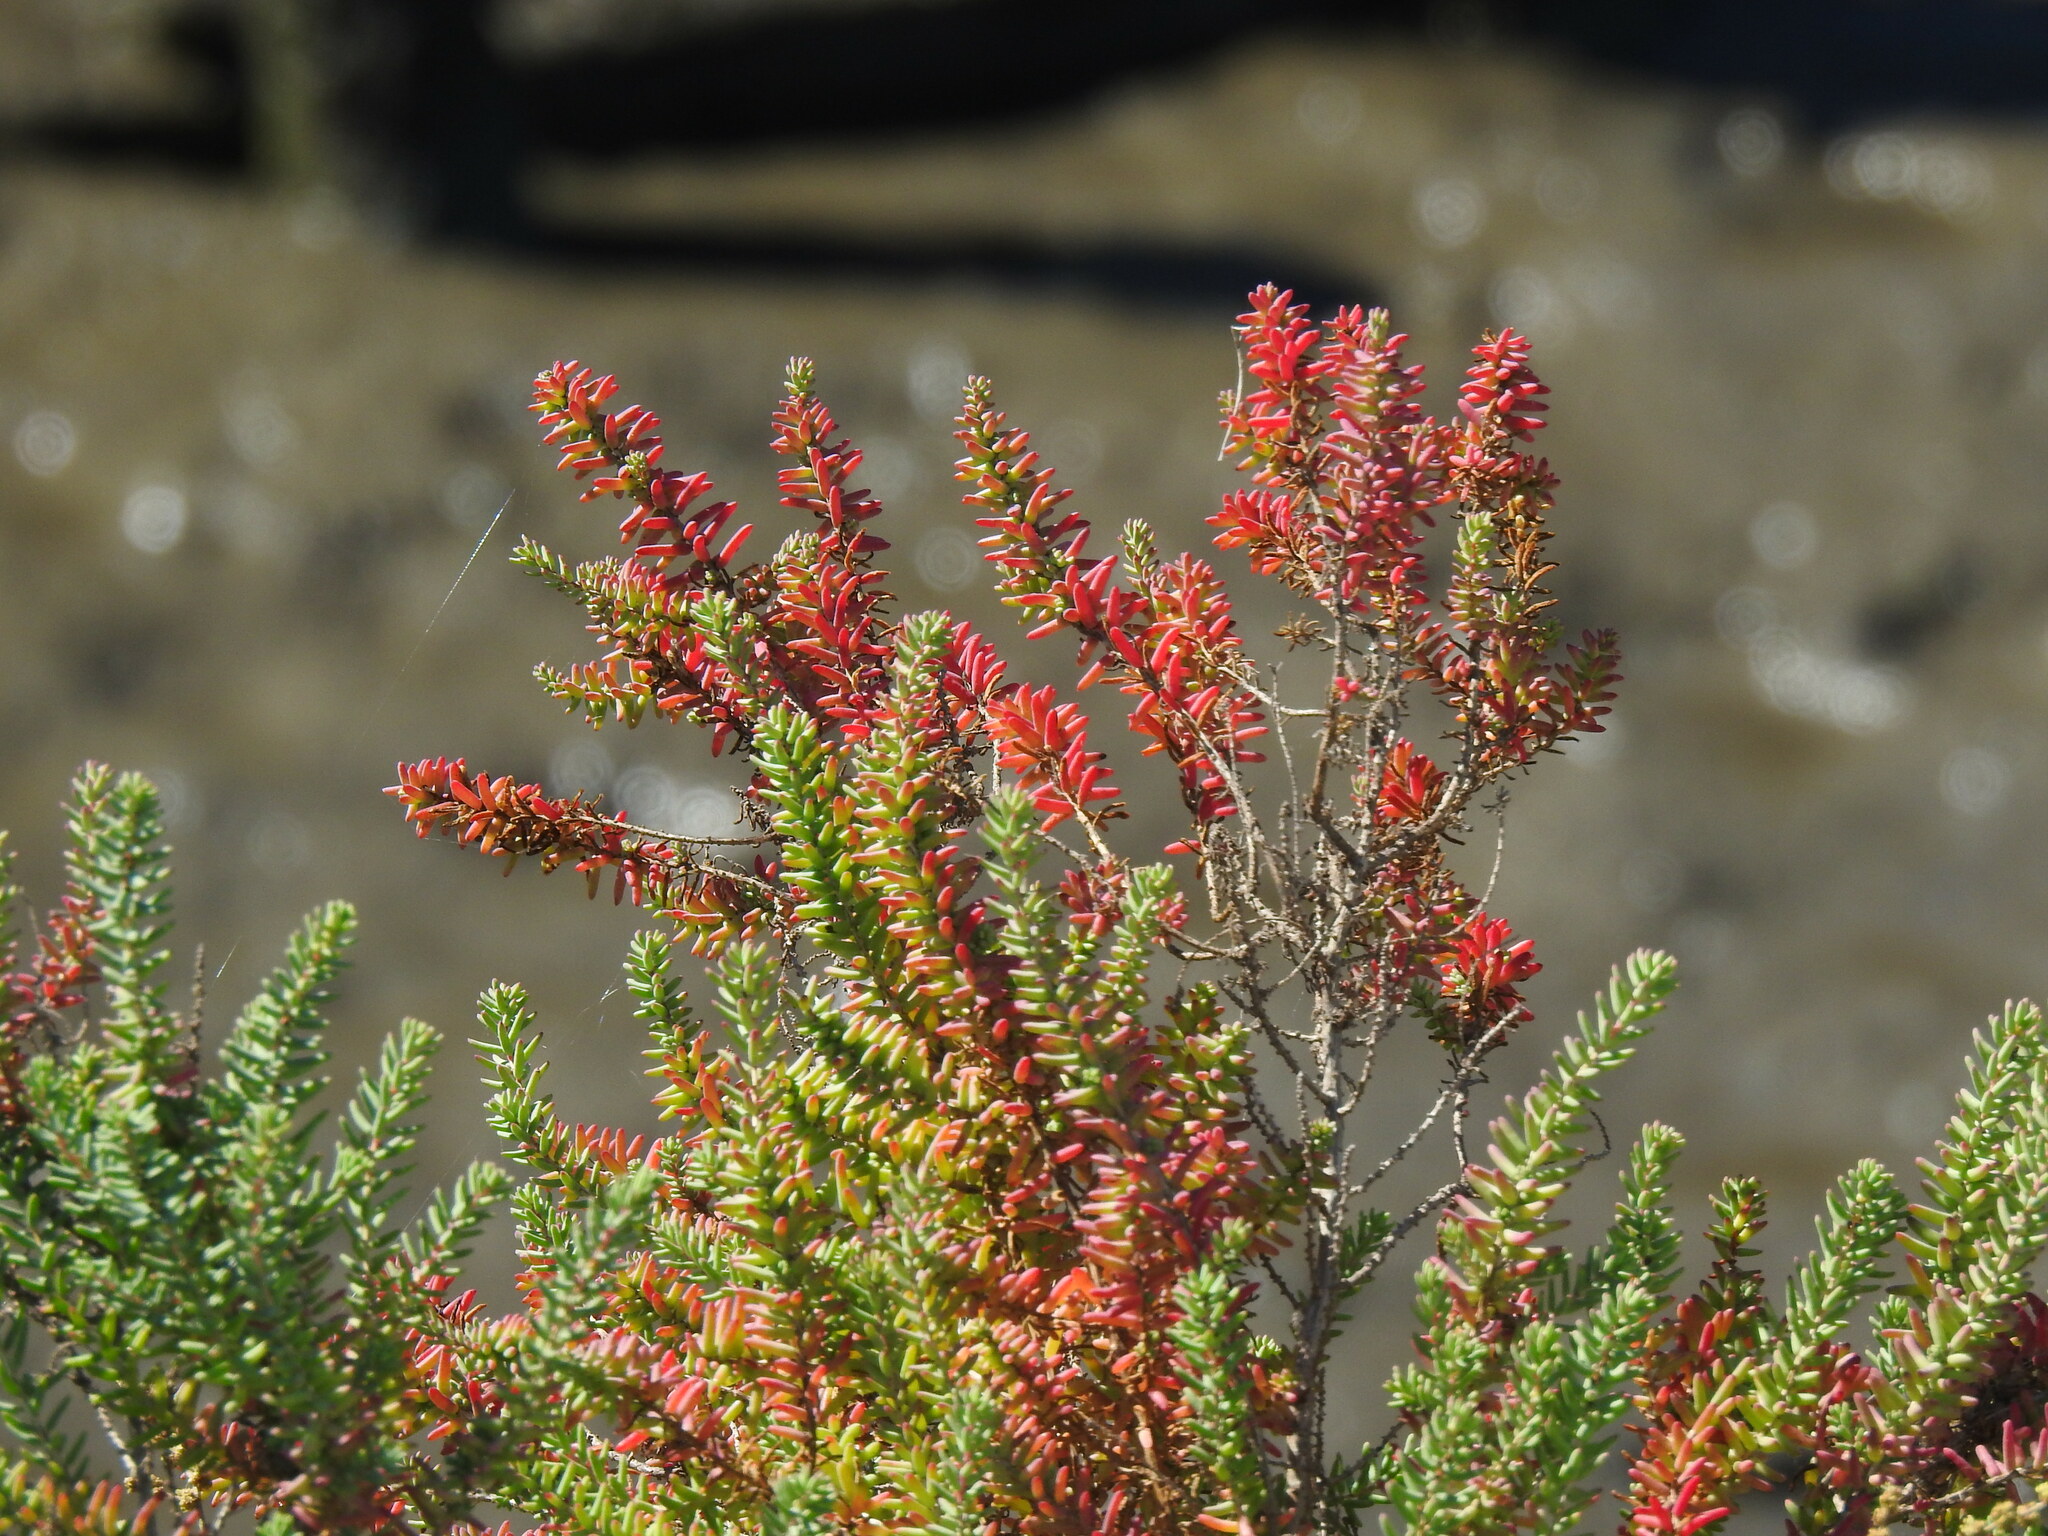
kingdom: Plantae
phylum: Tracheophyta
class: Magnoliopsida
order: Caryophyllales
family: Amaranthaceae
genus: Suaeda
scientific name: Suaeda vera
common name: Shrubby sea-blite
